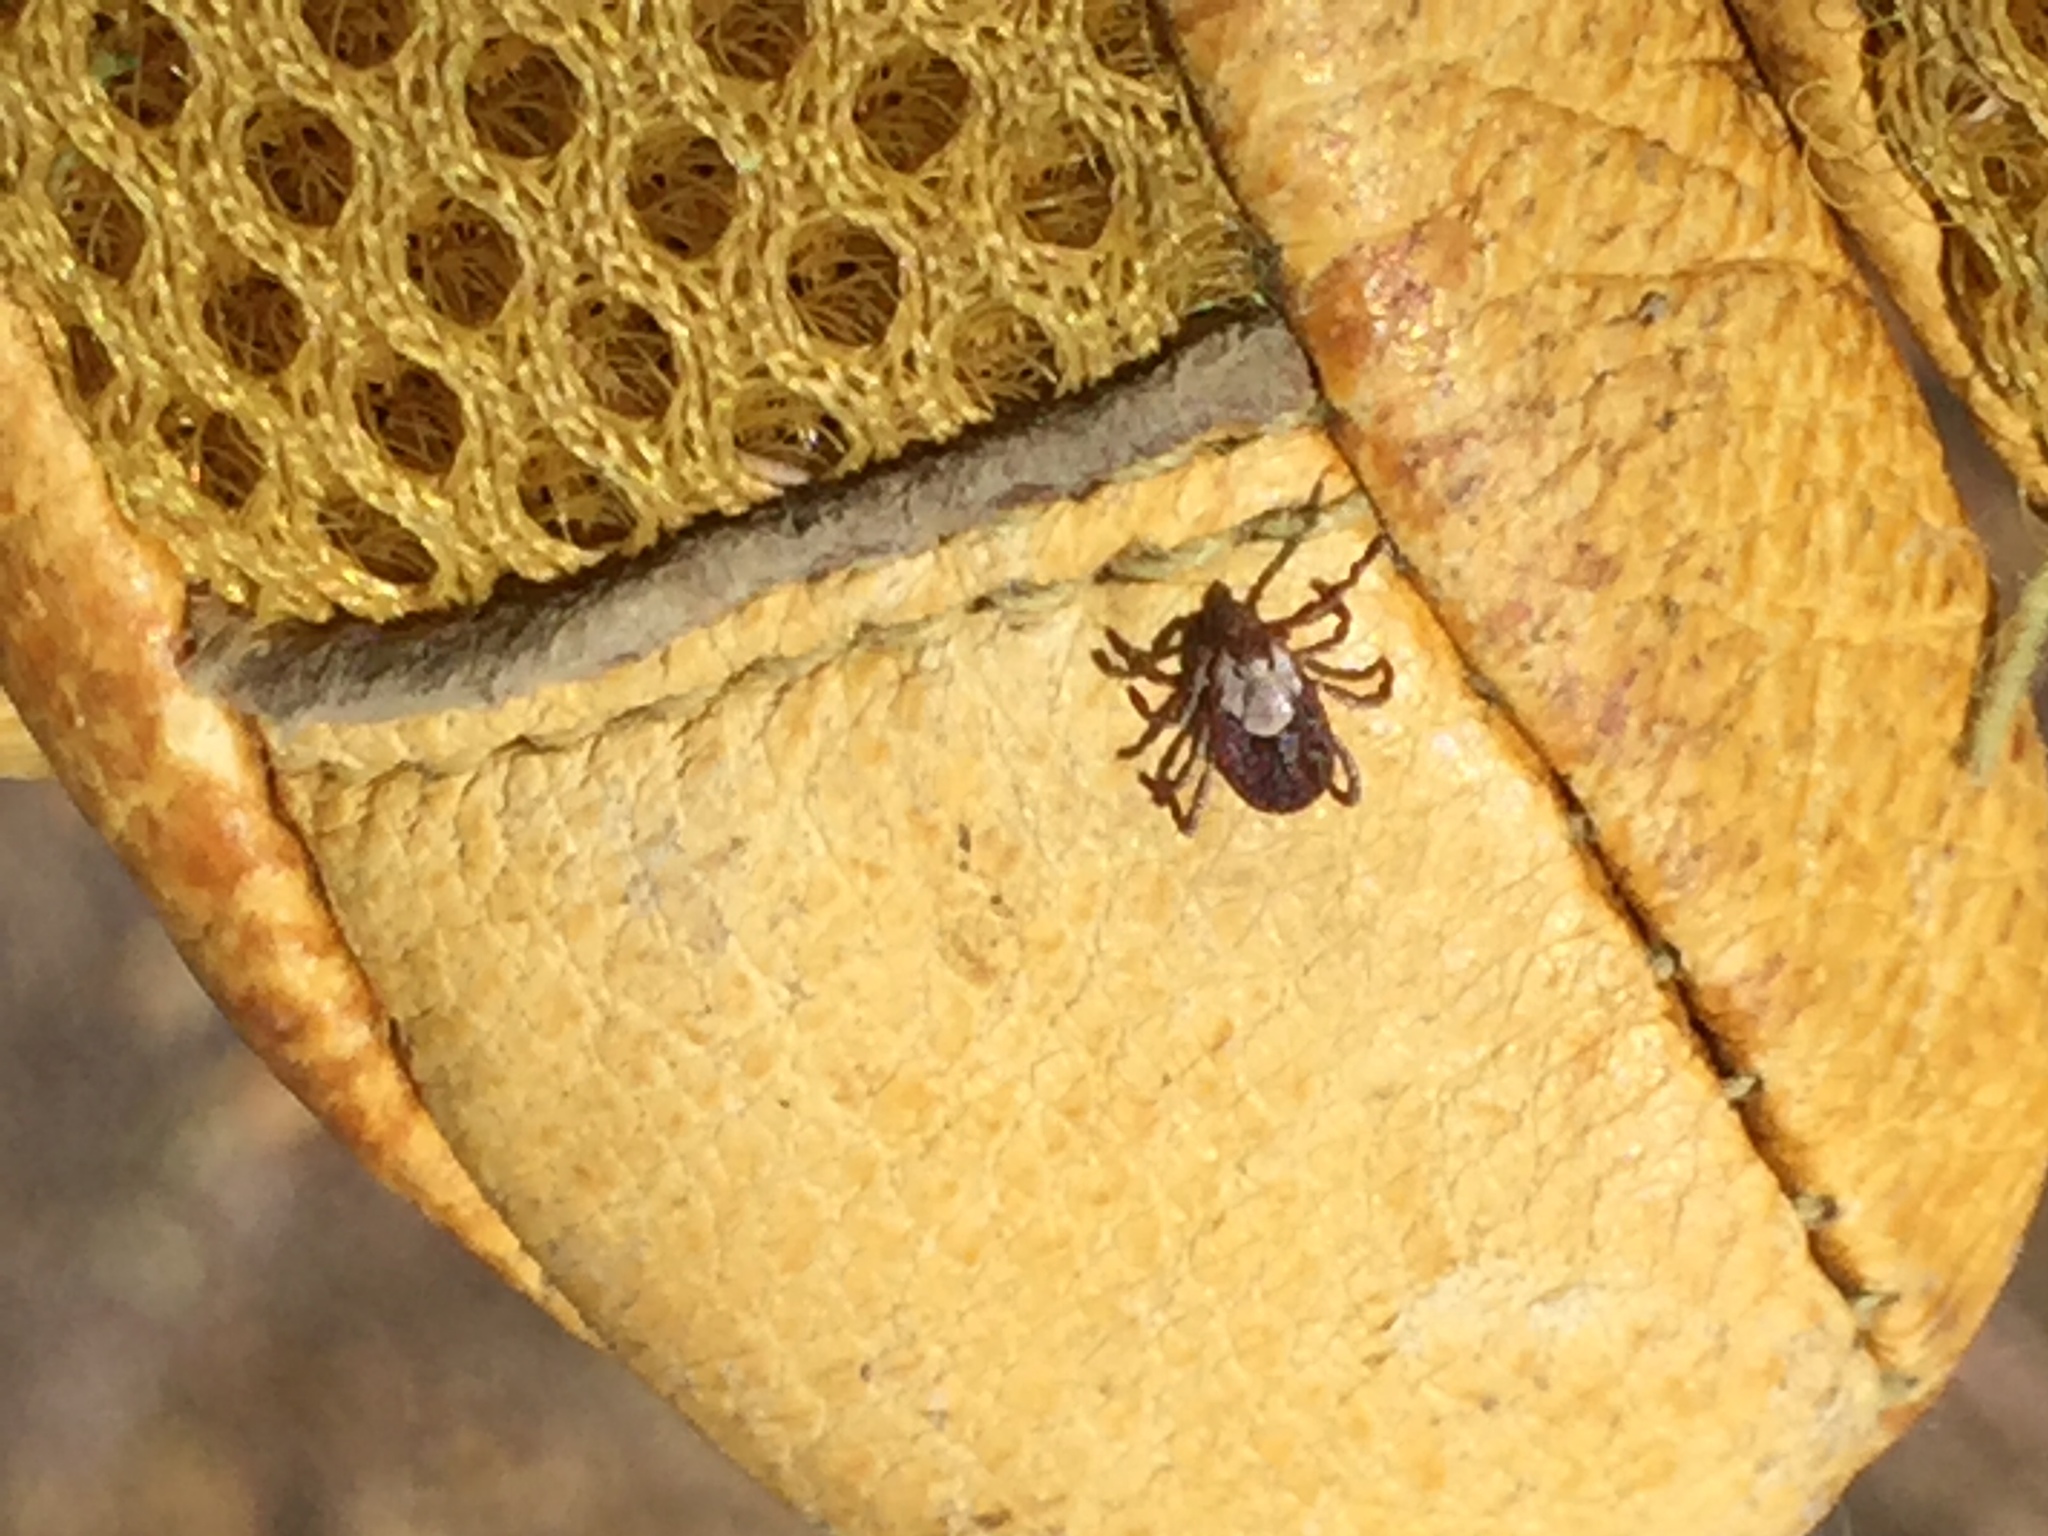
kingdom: Animalia
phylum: Arthropoda
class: Arachnida
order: Ixodida
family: Ixodidae
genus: Dermacentor
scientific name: Dermacentor occidentalis
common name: Net tick
